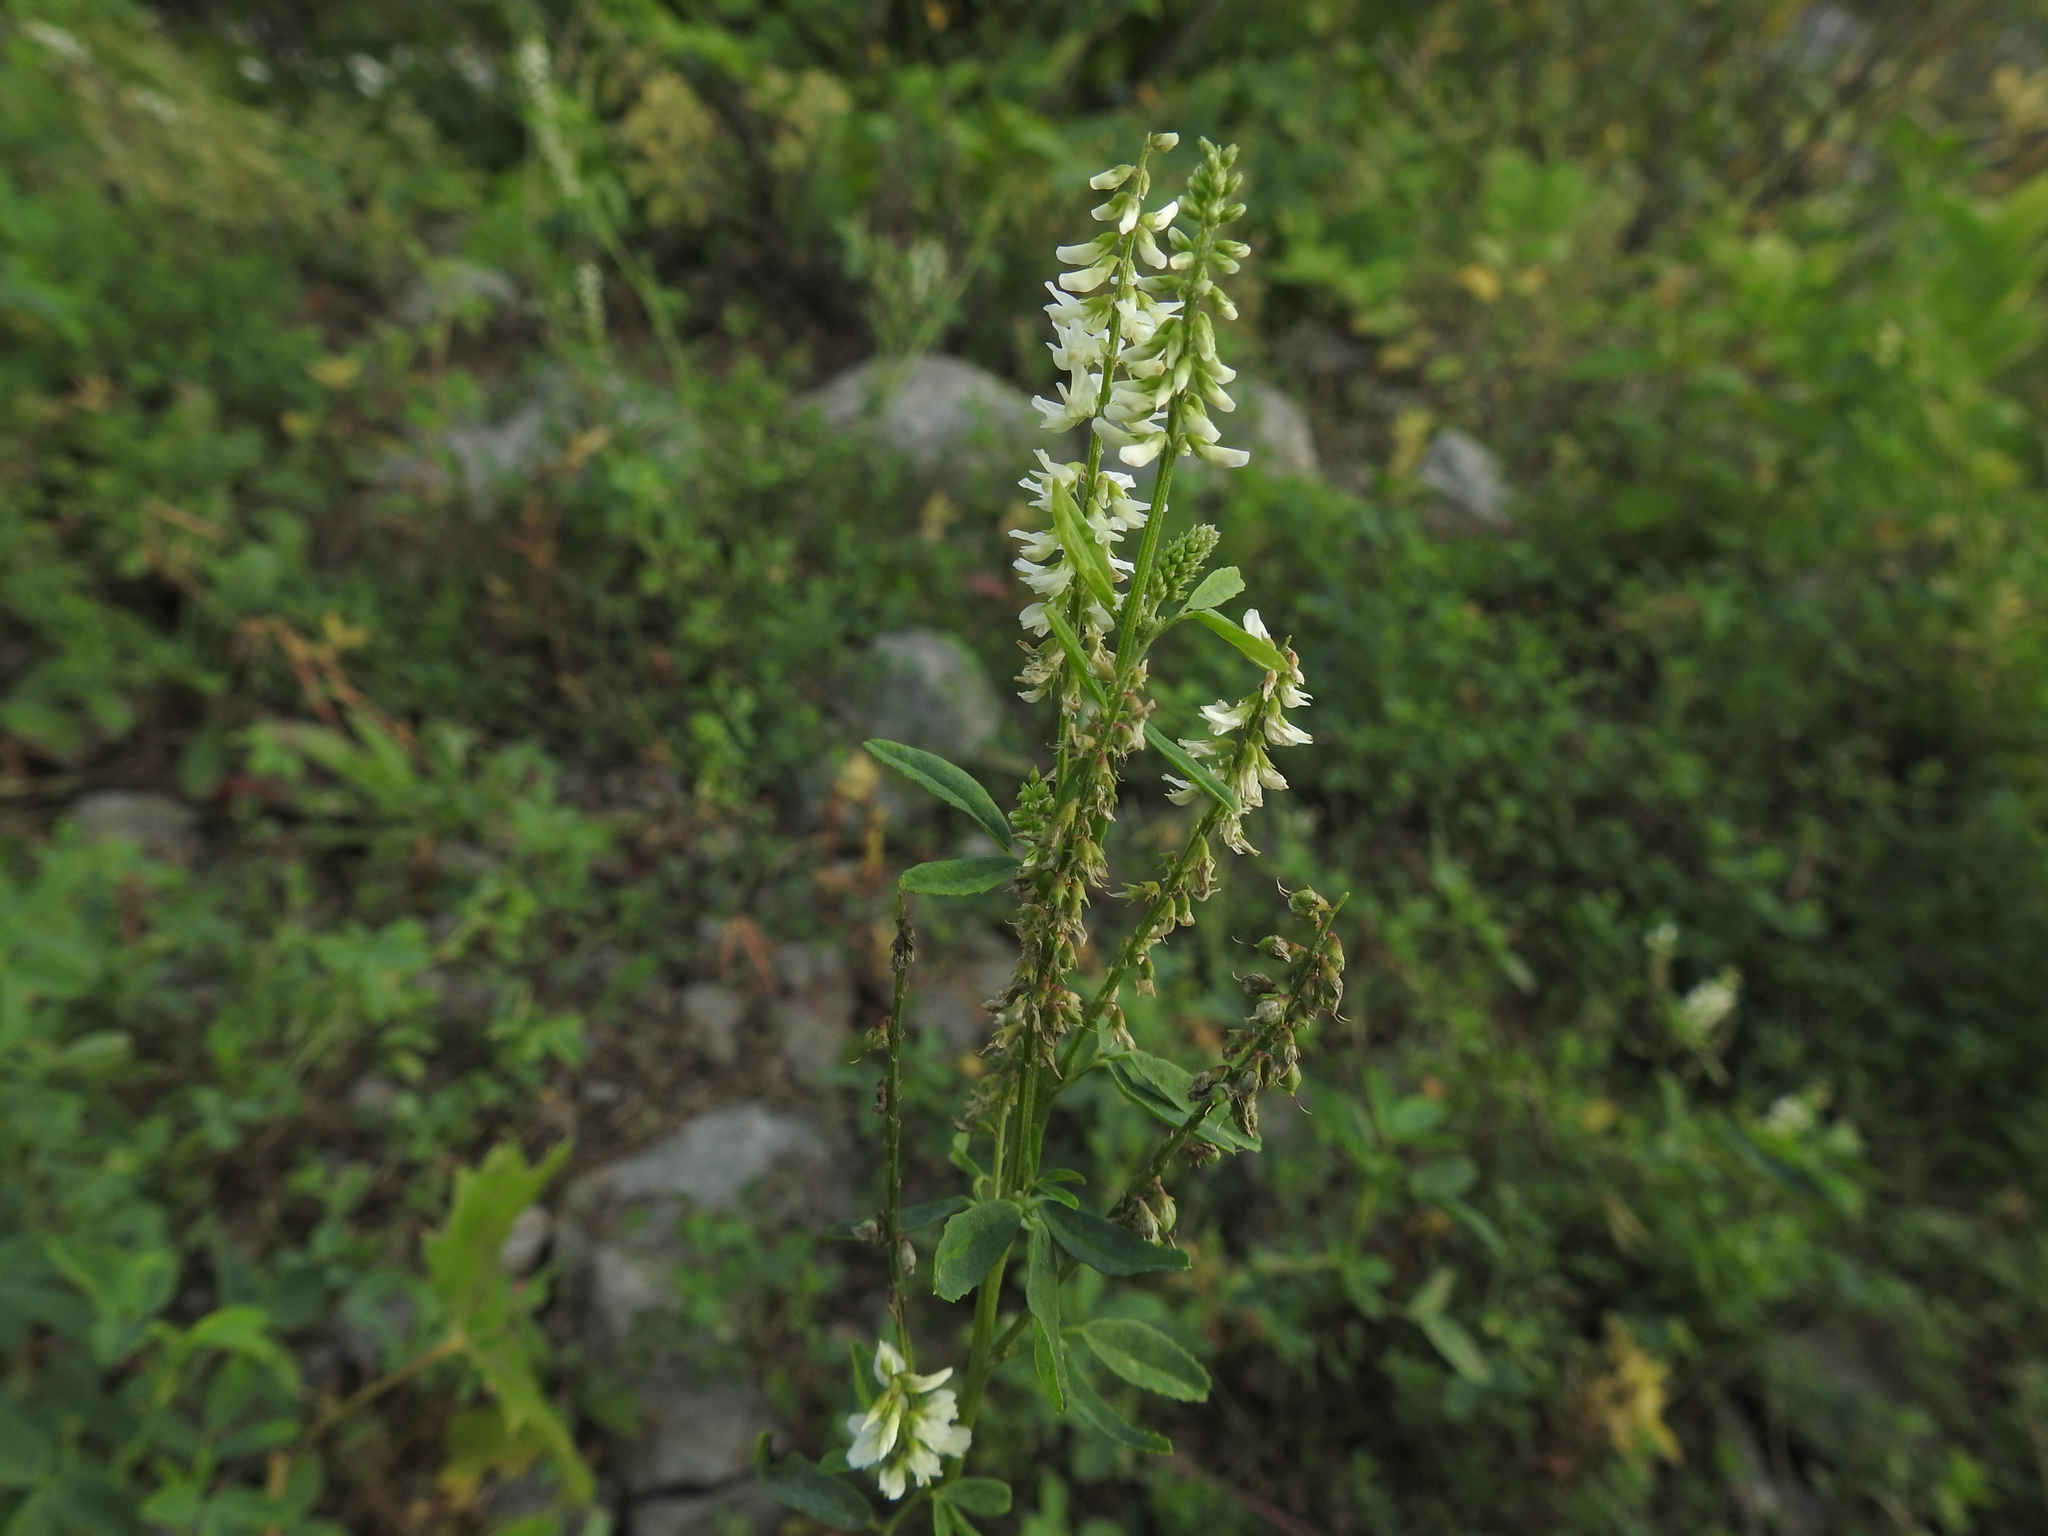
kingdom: Plantae
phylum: Tracheophyta
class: Magnoliopsida
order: Fabales
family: Fabaceae
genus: Melilotus
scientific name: Melilotus albus
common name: White melilot
